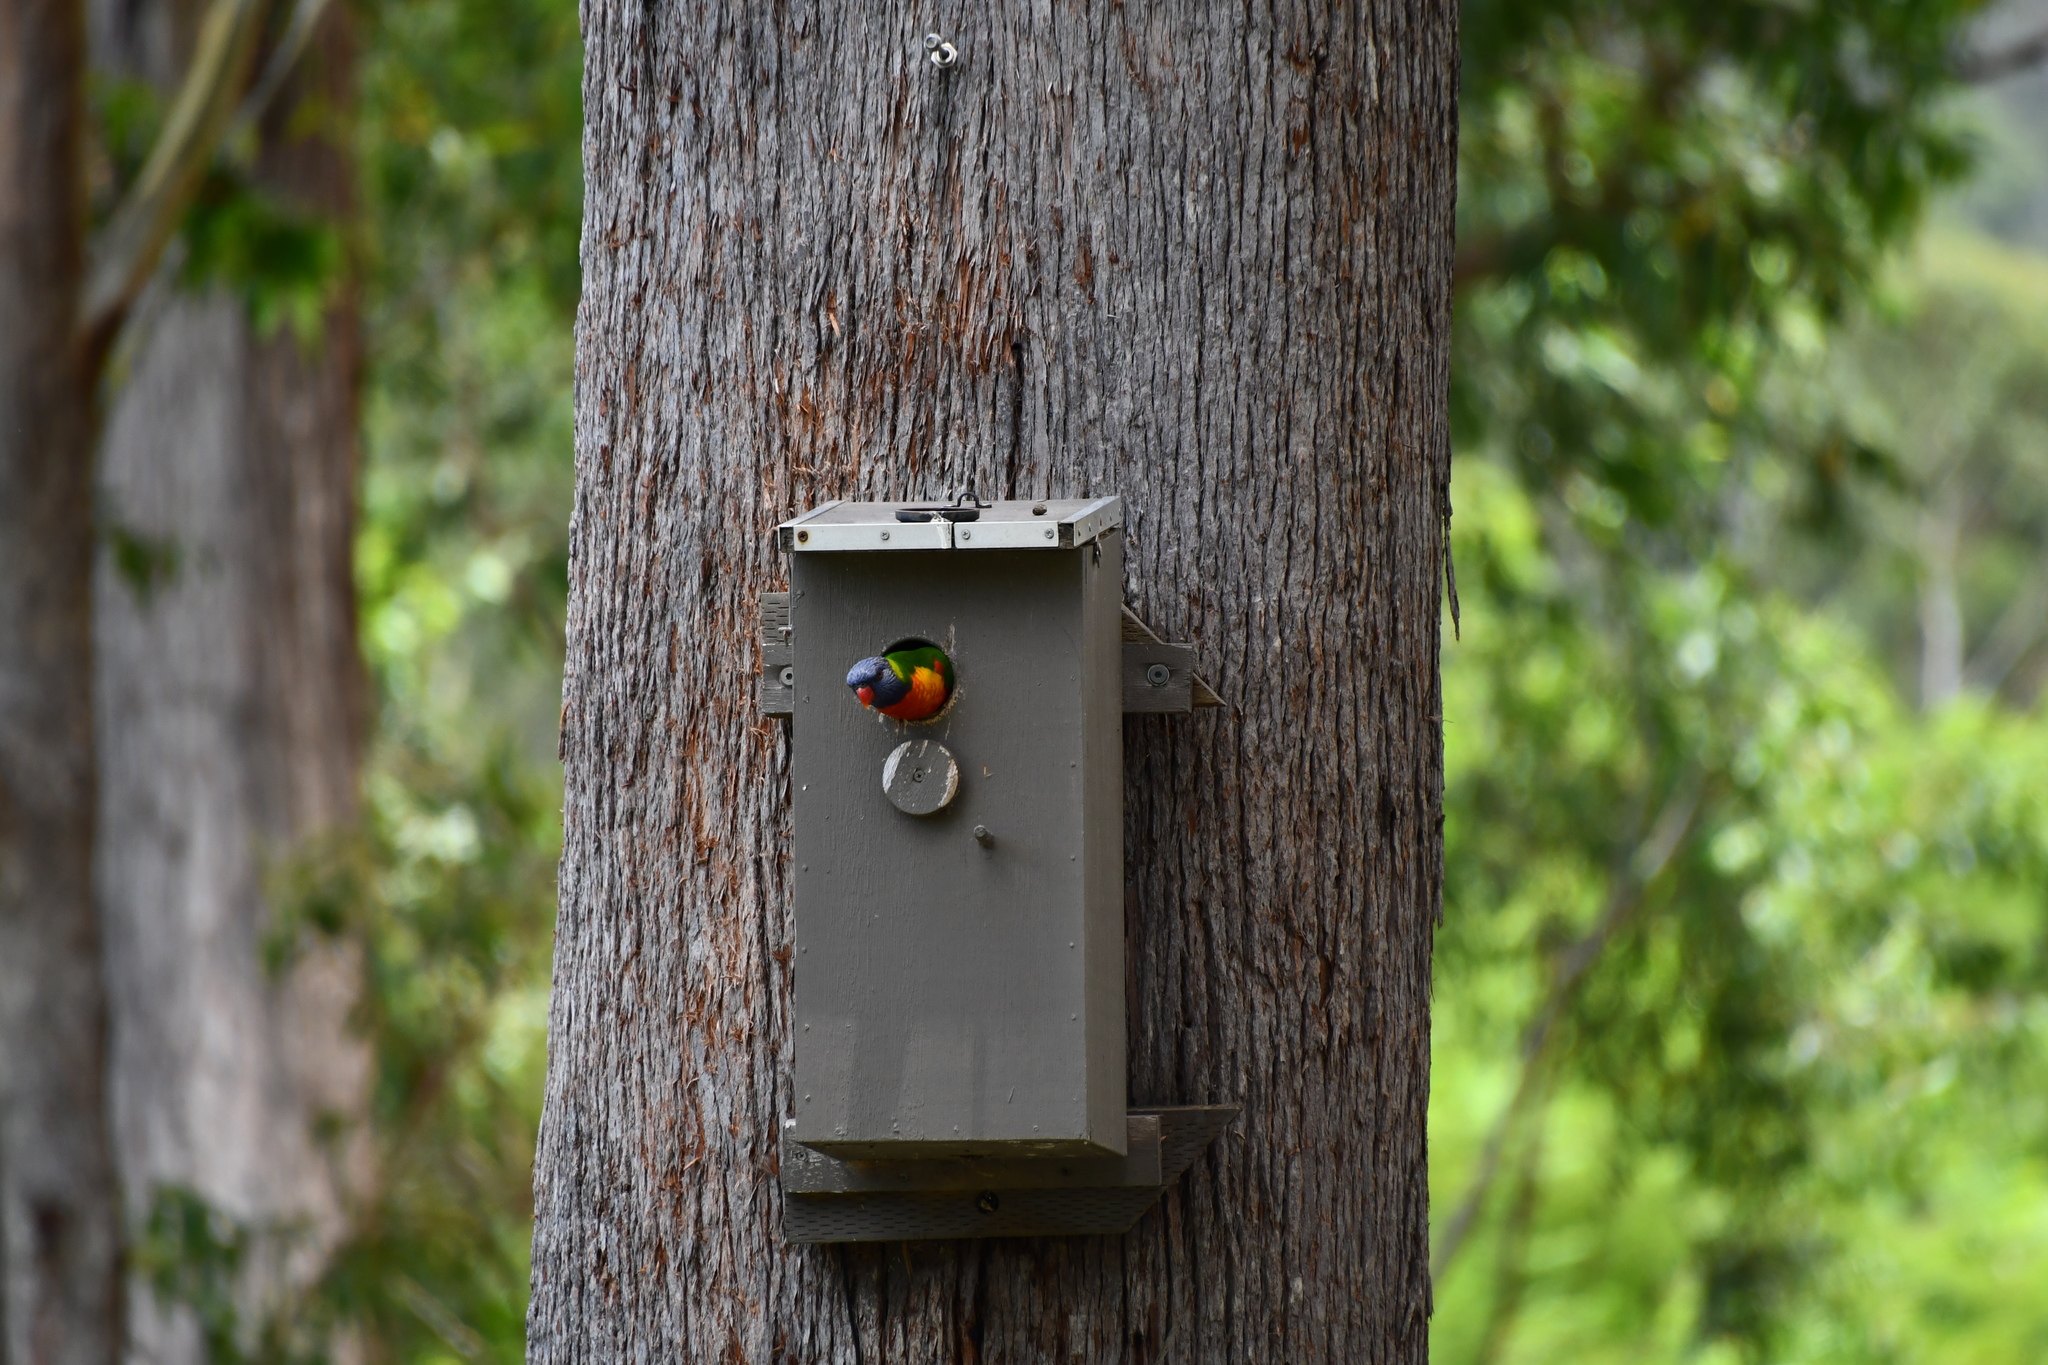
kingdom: Animalia
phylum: Chordata
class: Aves
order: Psittaciformes
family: Psittacidae
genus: Trichoglossus
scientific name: Trichoglossus haematodus
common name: Coconut lorikeet
